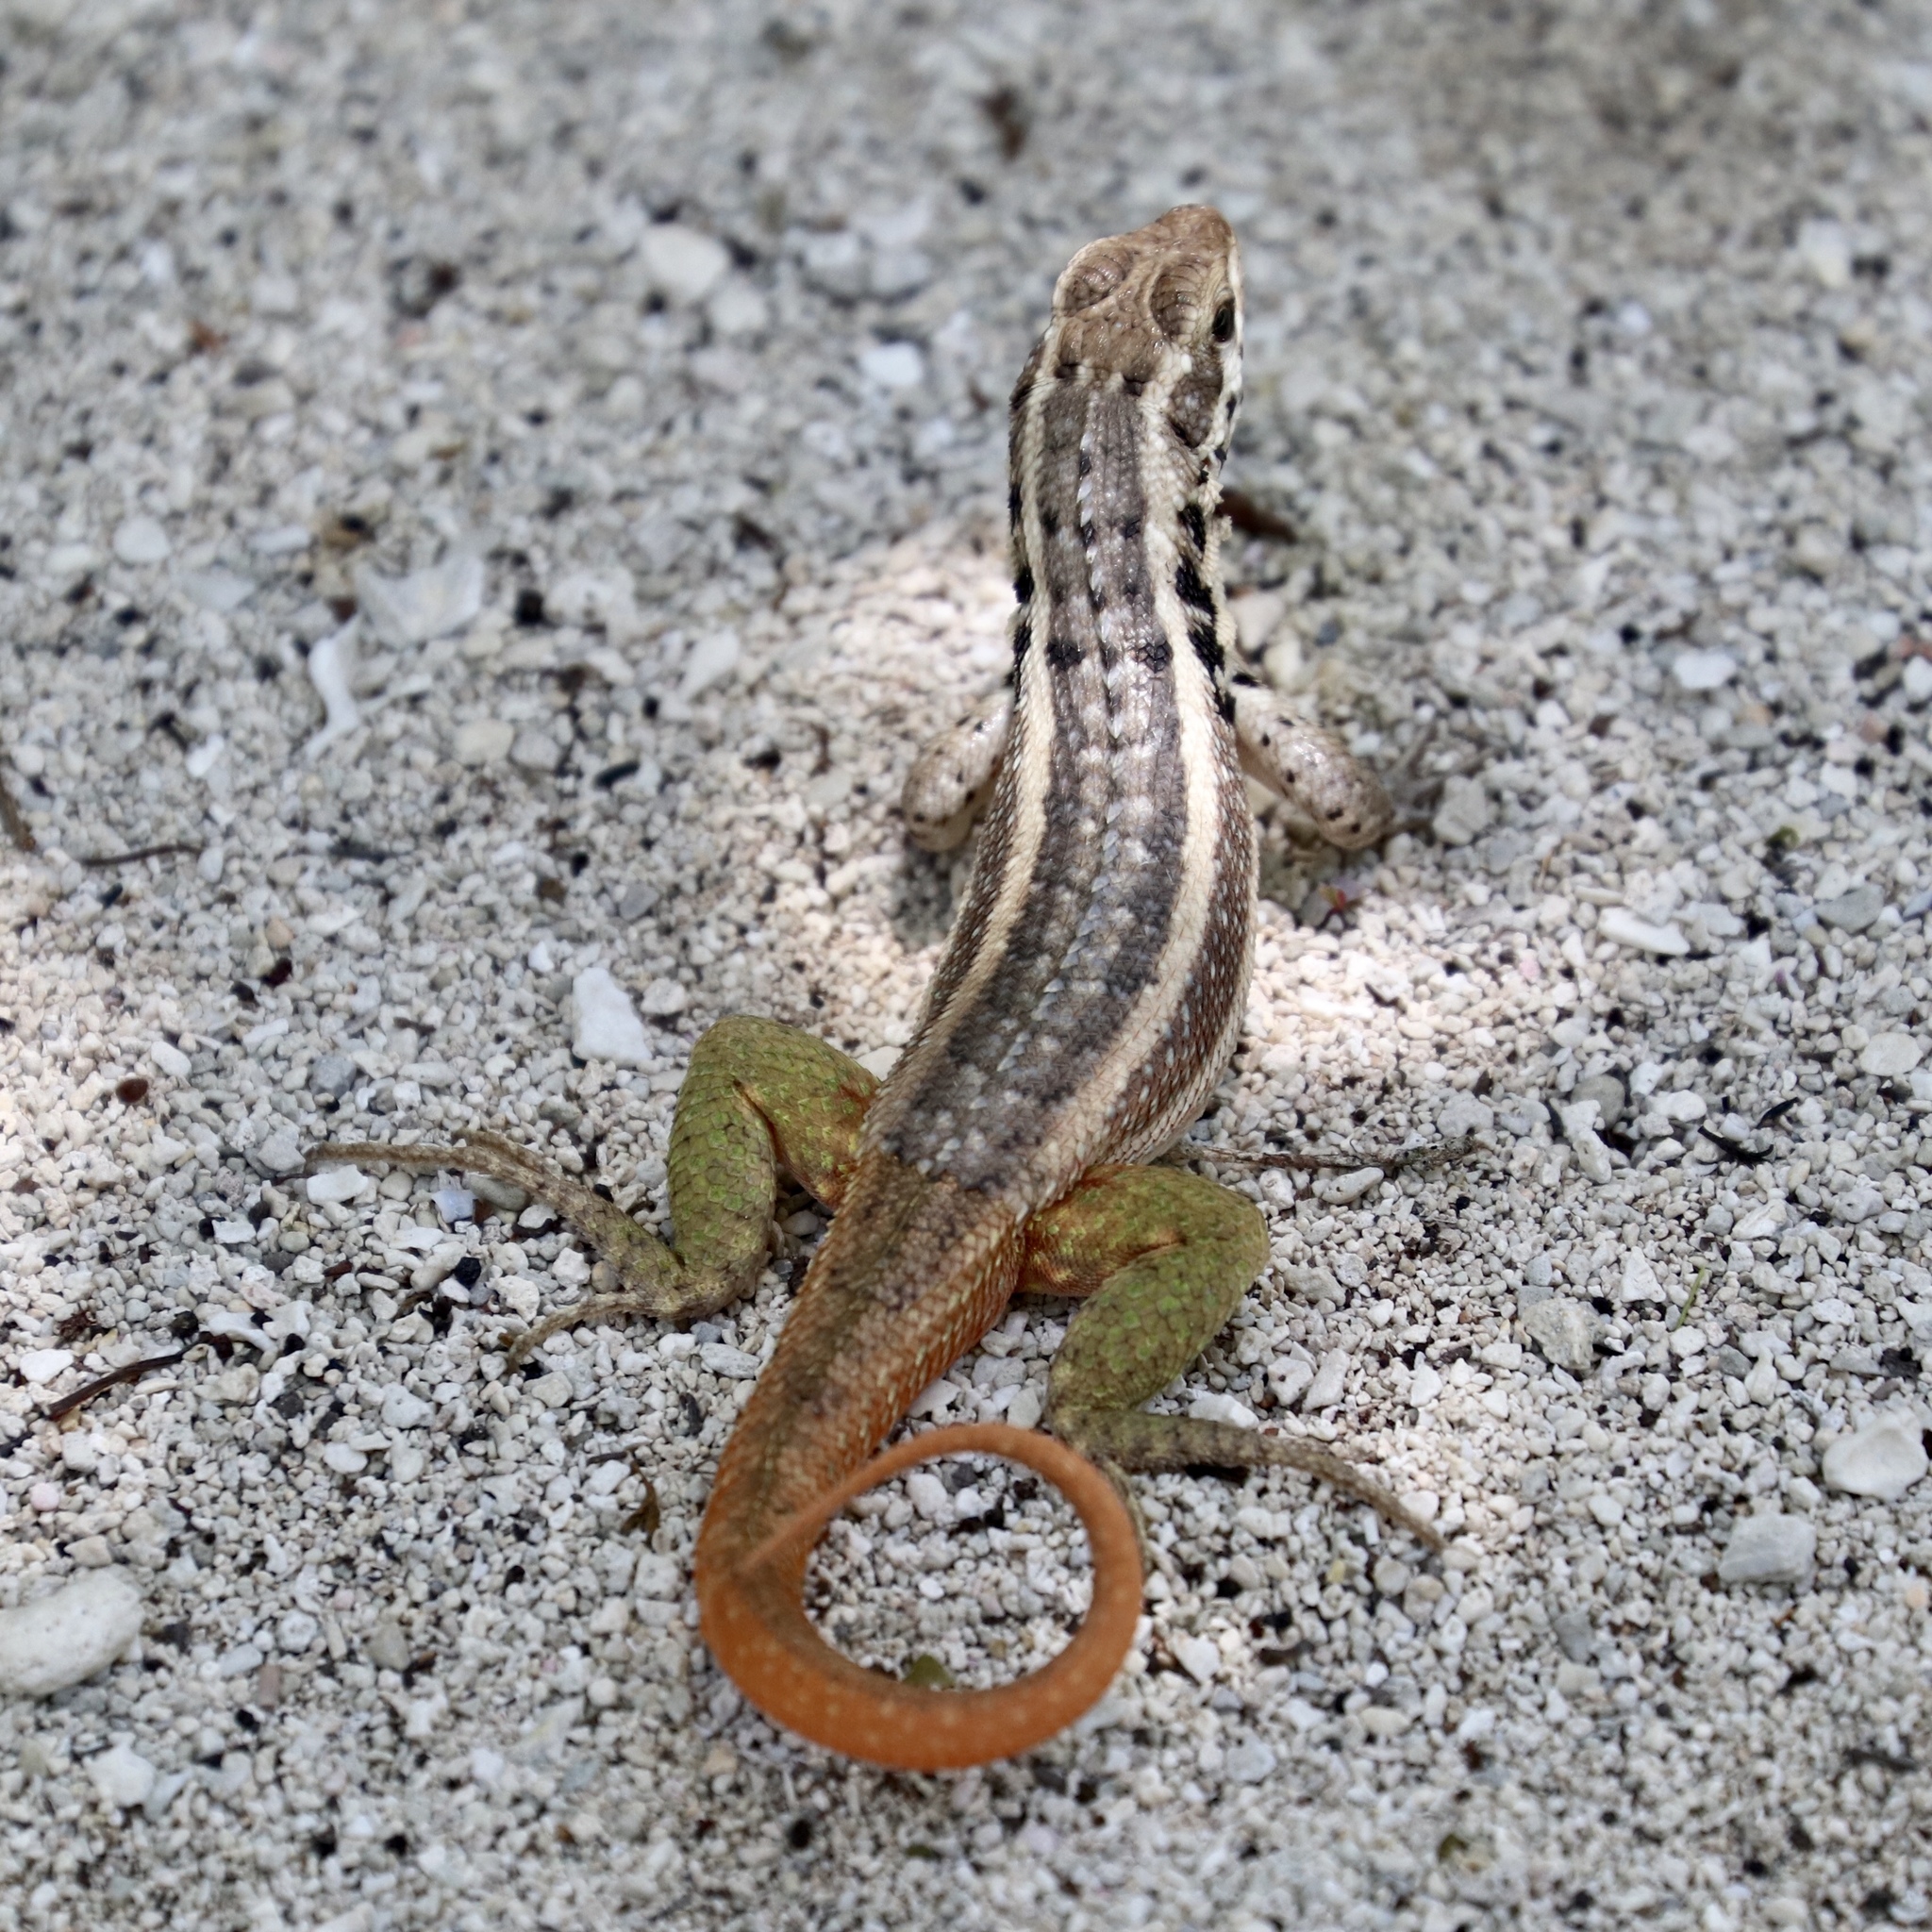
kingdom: Animalia
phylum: Chordata
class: Squamata
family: Leiocephalidae
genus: Leiocephalus
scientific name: Leiocephalus lunatus
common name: Santo domingo curlytail lizard
